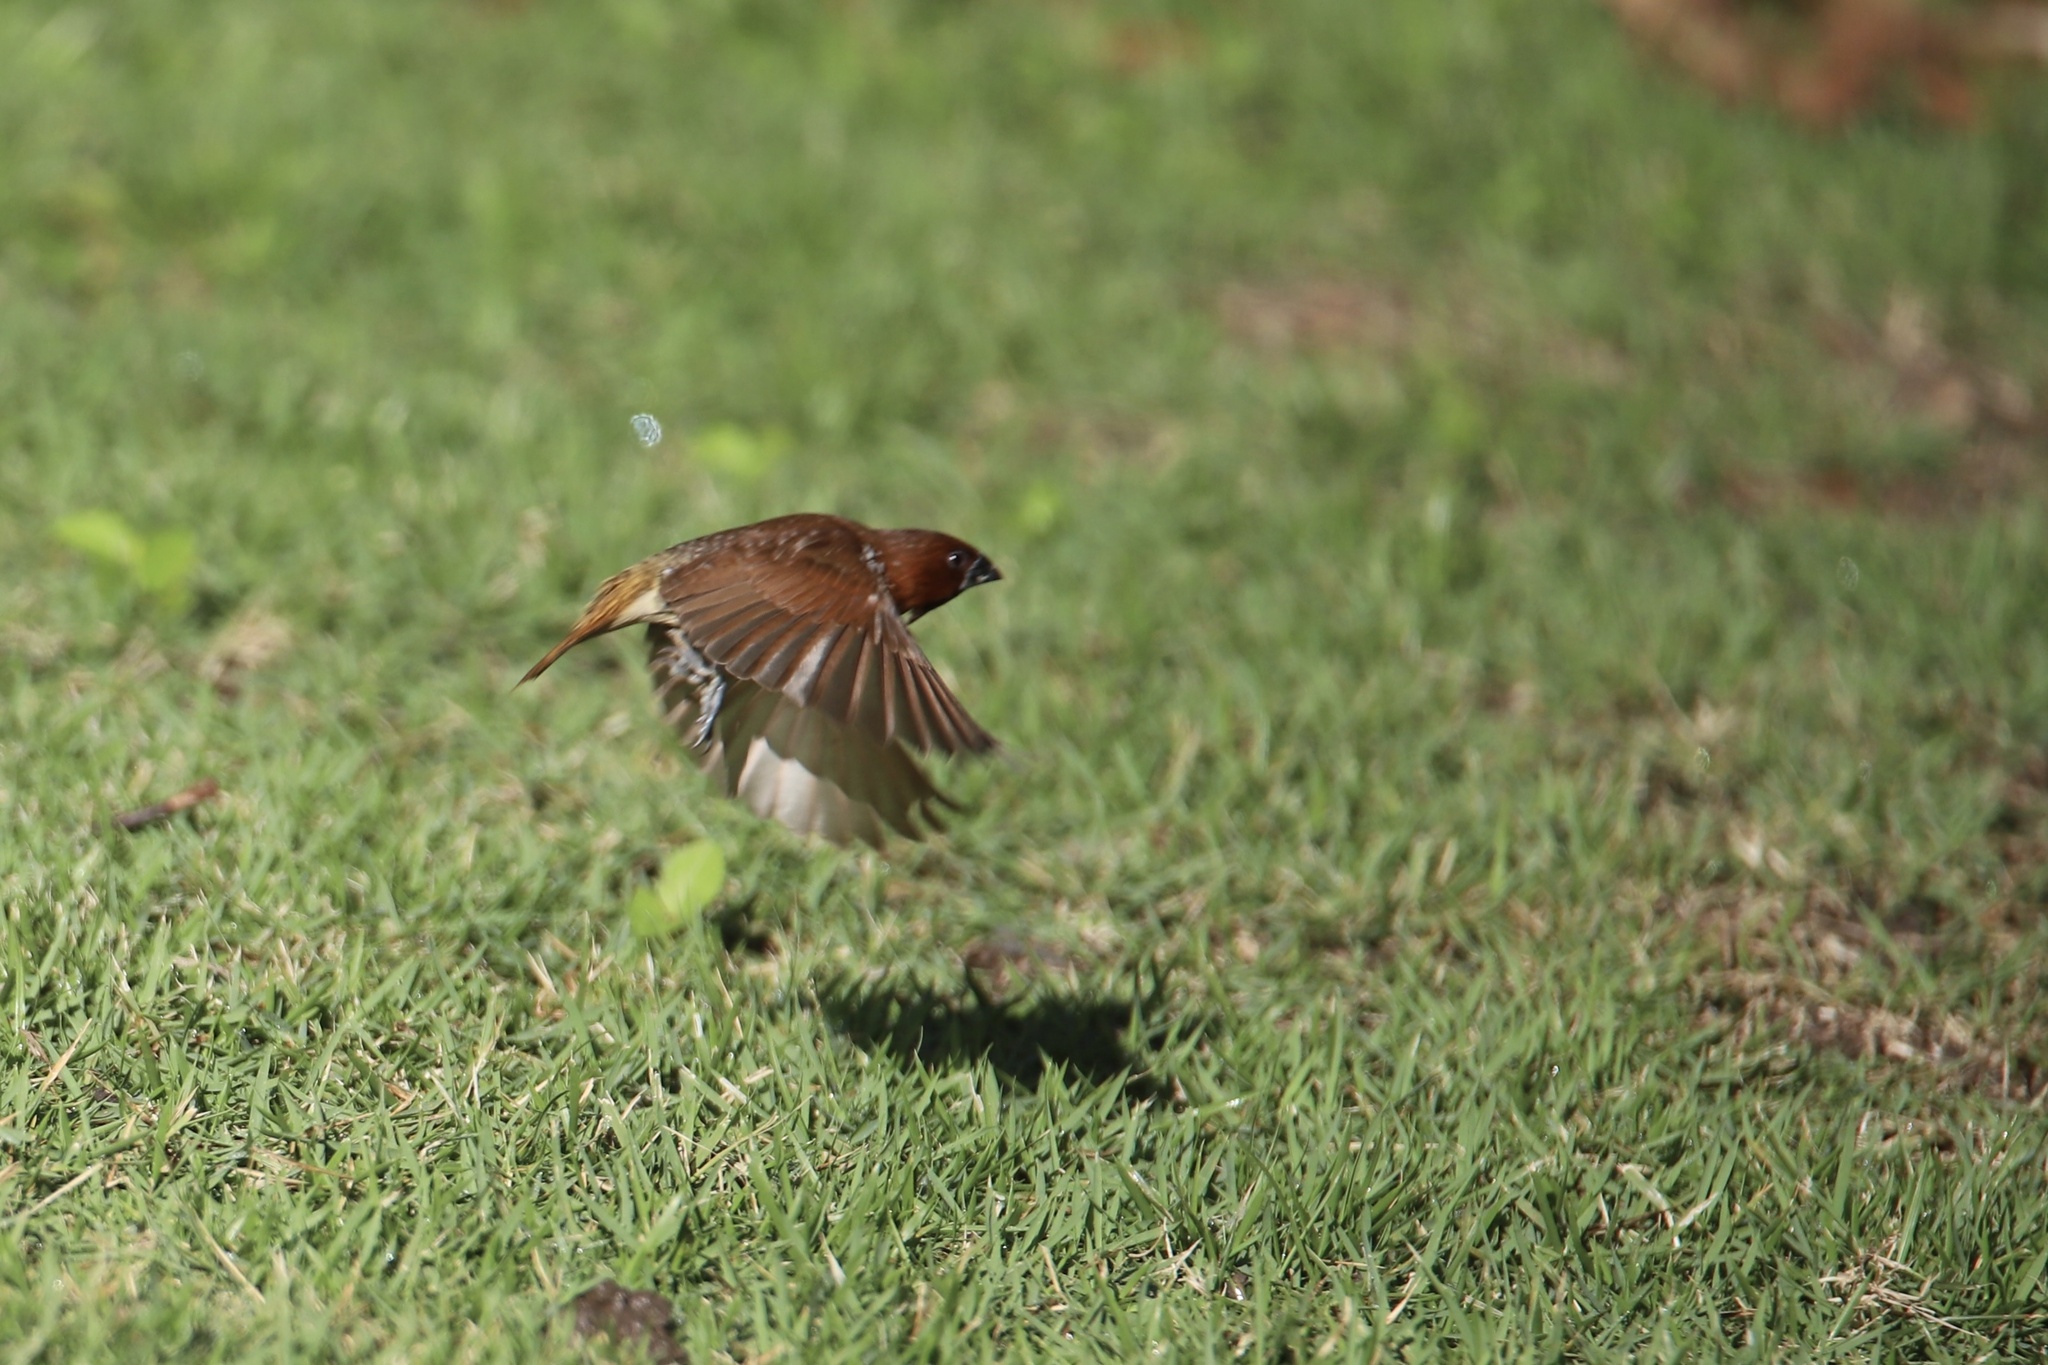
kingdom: Animalia
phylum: Chordata
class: Aves
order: Passeriformes
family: Estrildidae
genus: Lonchura
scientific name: Lonchura punctulata
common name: Scaly-breasted munia
